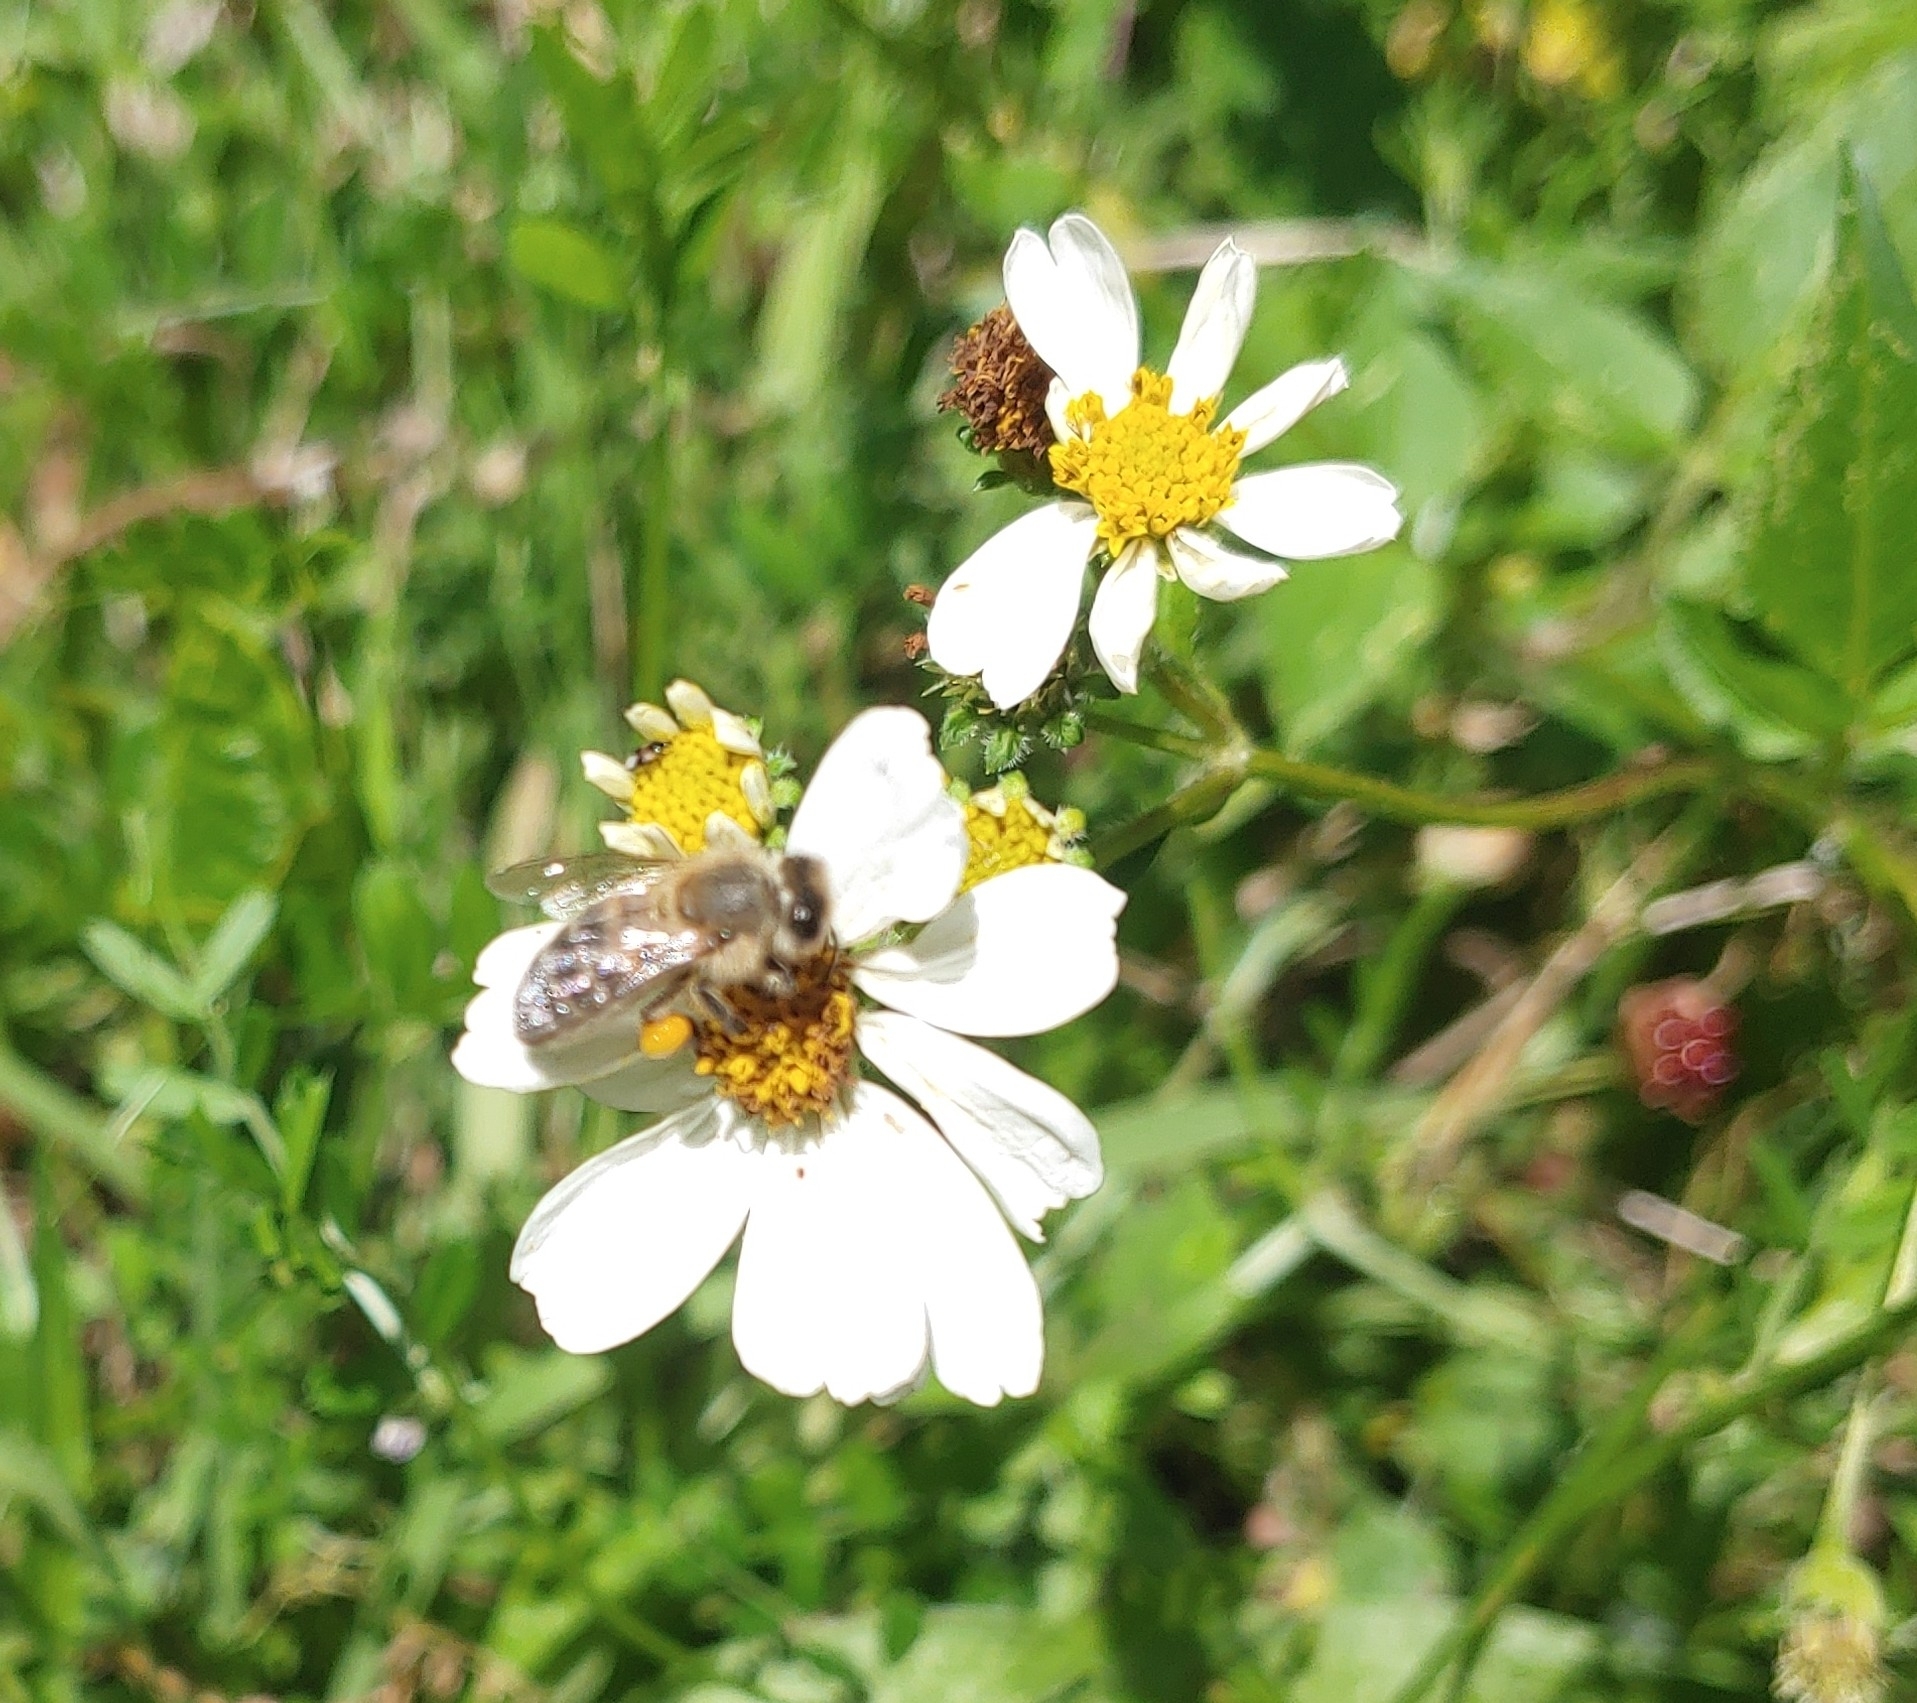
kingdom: Plantae
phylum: Tracheophyta
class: Magnoliopsida
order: Asterales
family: Asteraceae
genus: Bidens
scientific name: Bidens alba
